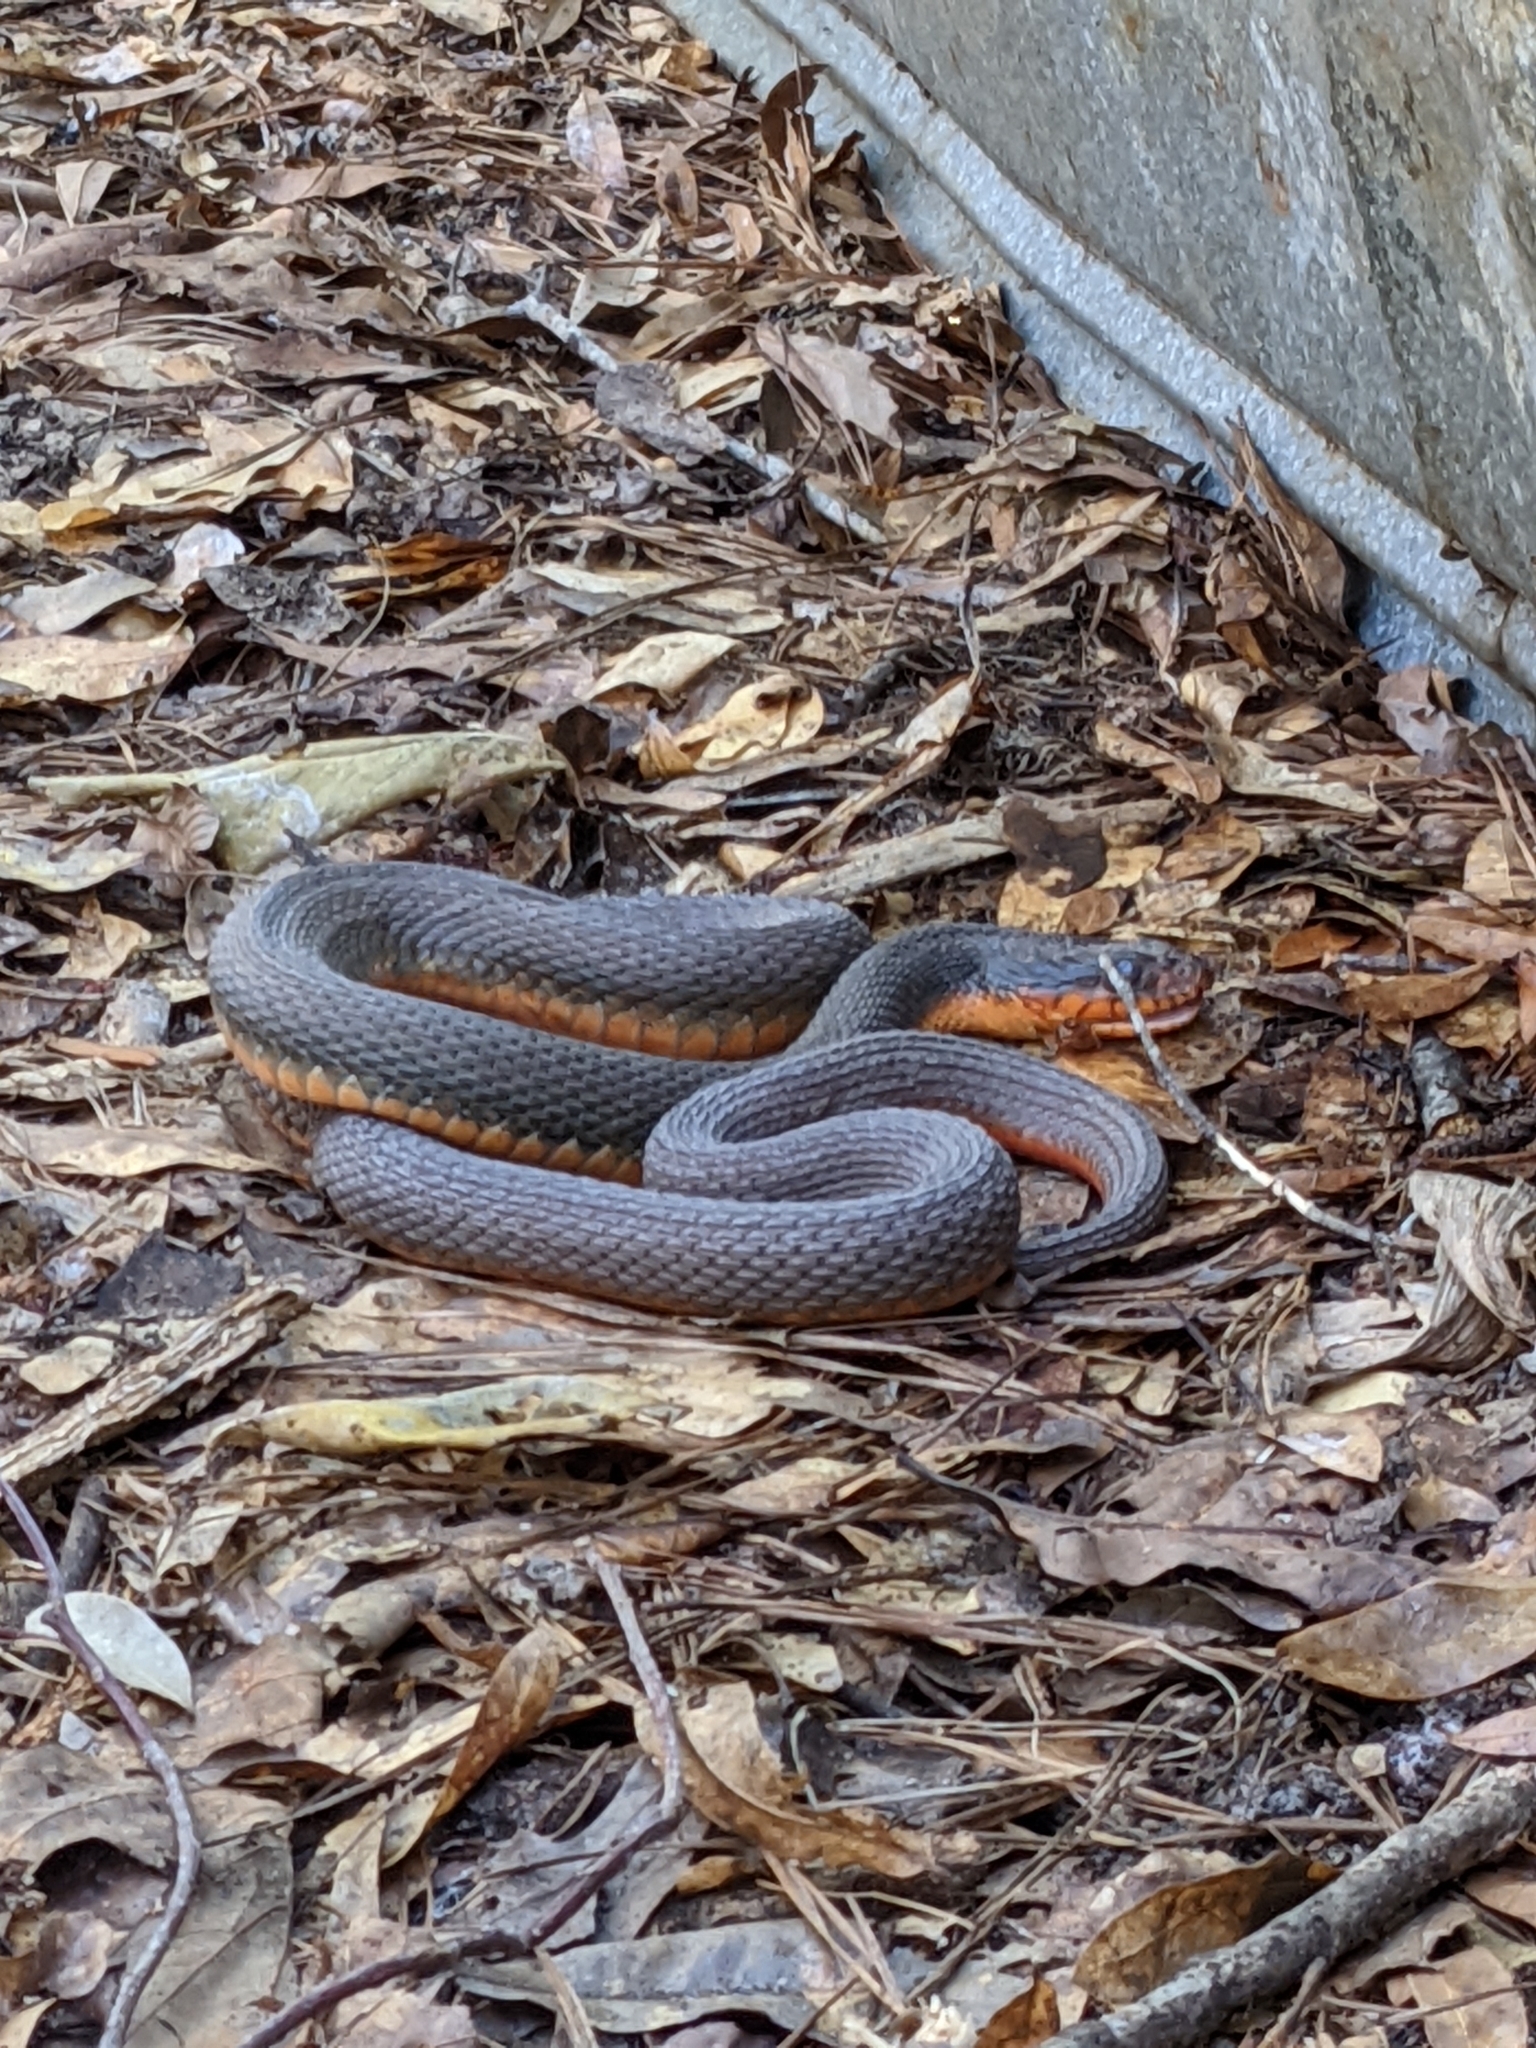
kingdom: Animalia
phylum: Chordata
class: Squamata
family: Colubridae
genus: Nerodia
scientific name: Nerodia erythrogaster
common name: Plainbelly water snake
